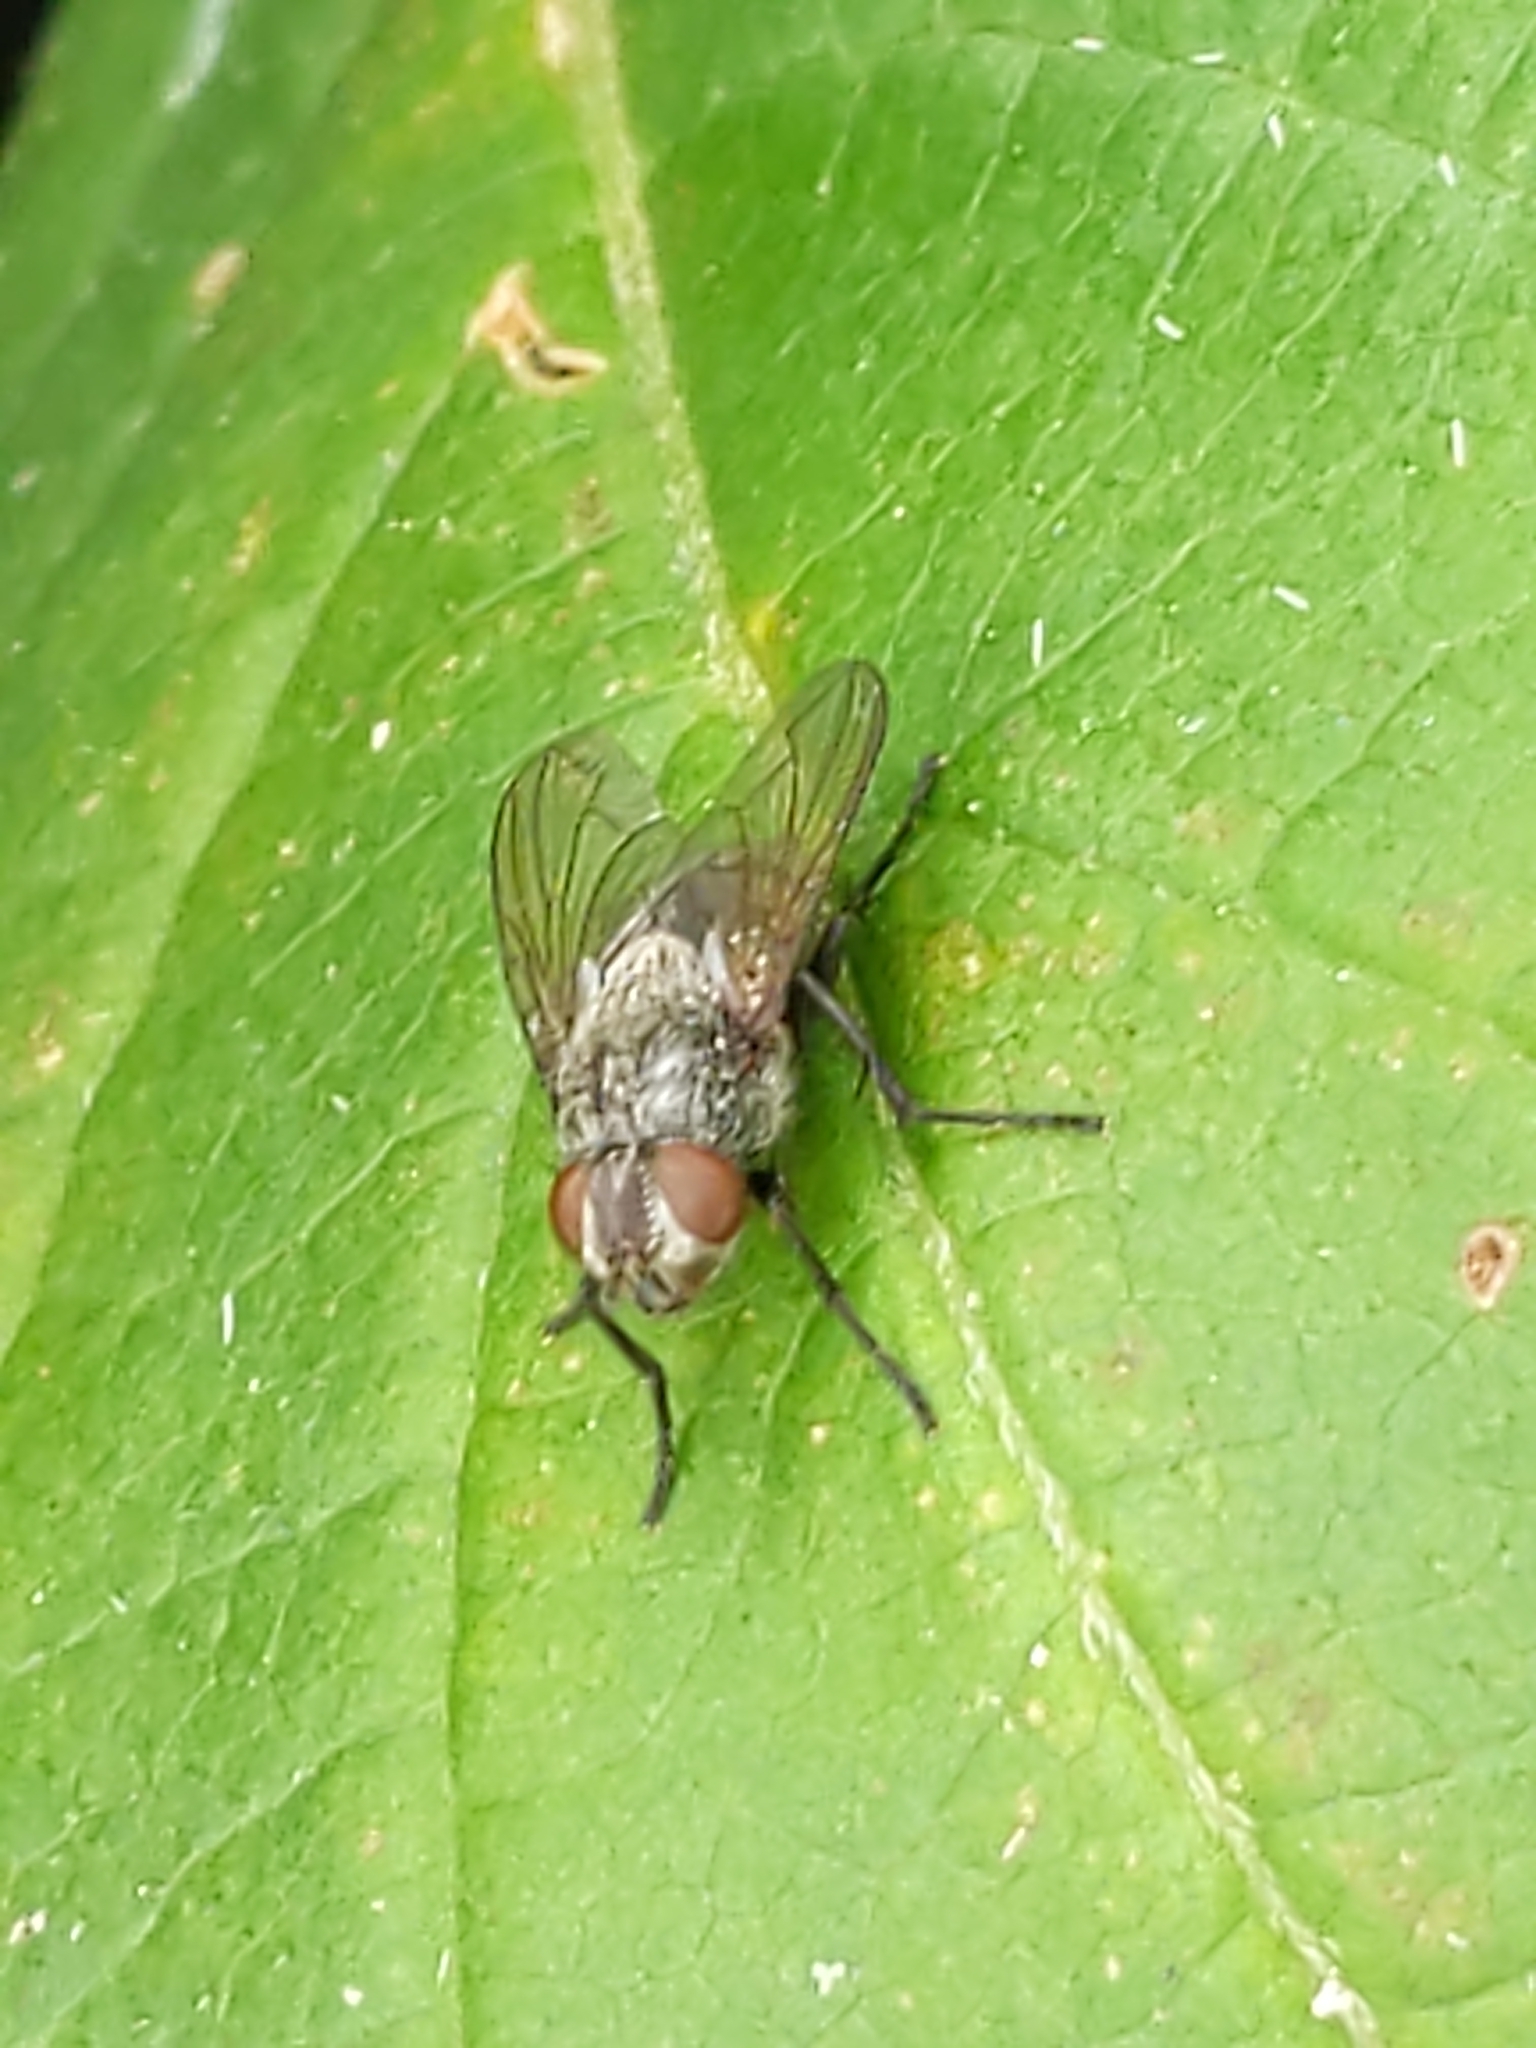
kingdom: Animalia
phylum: Arthropoda
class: Insecta
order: Diptera
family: Polleniidae
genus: Pollenia
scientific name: Pollenia
